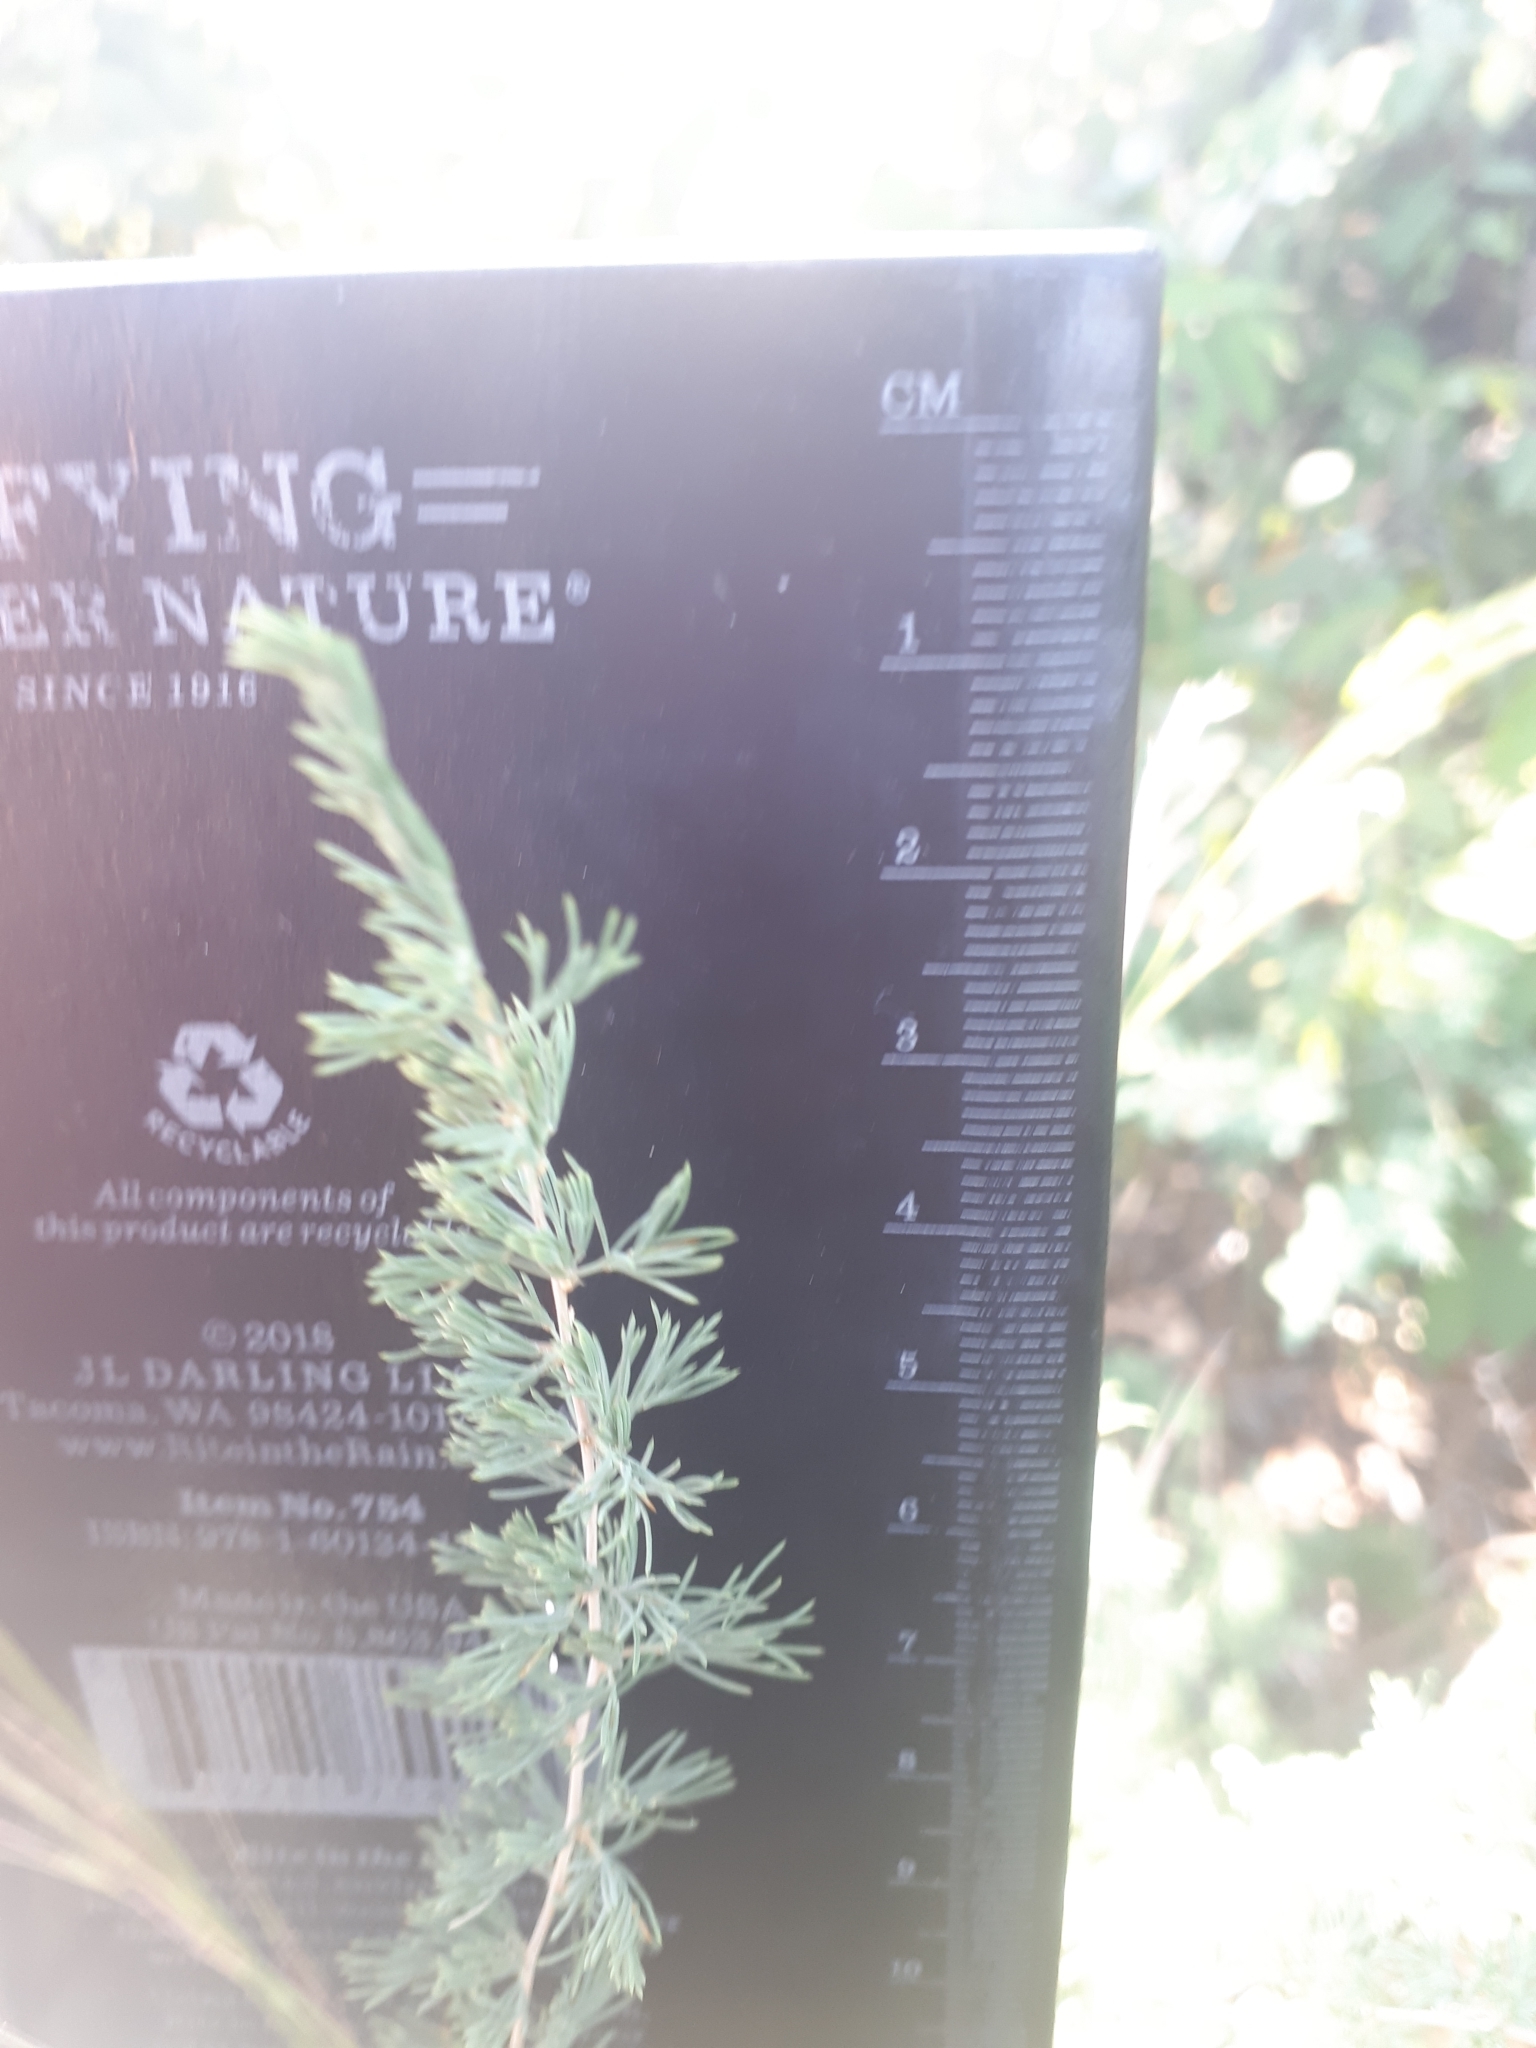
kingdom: Plantae
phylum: Tracheophyta
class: Liliopsida
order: Asparagales
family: Asparagaceae
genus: Asparagus
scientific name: Asparagus suaveolens
